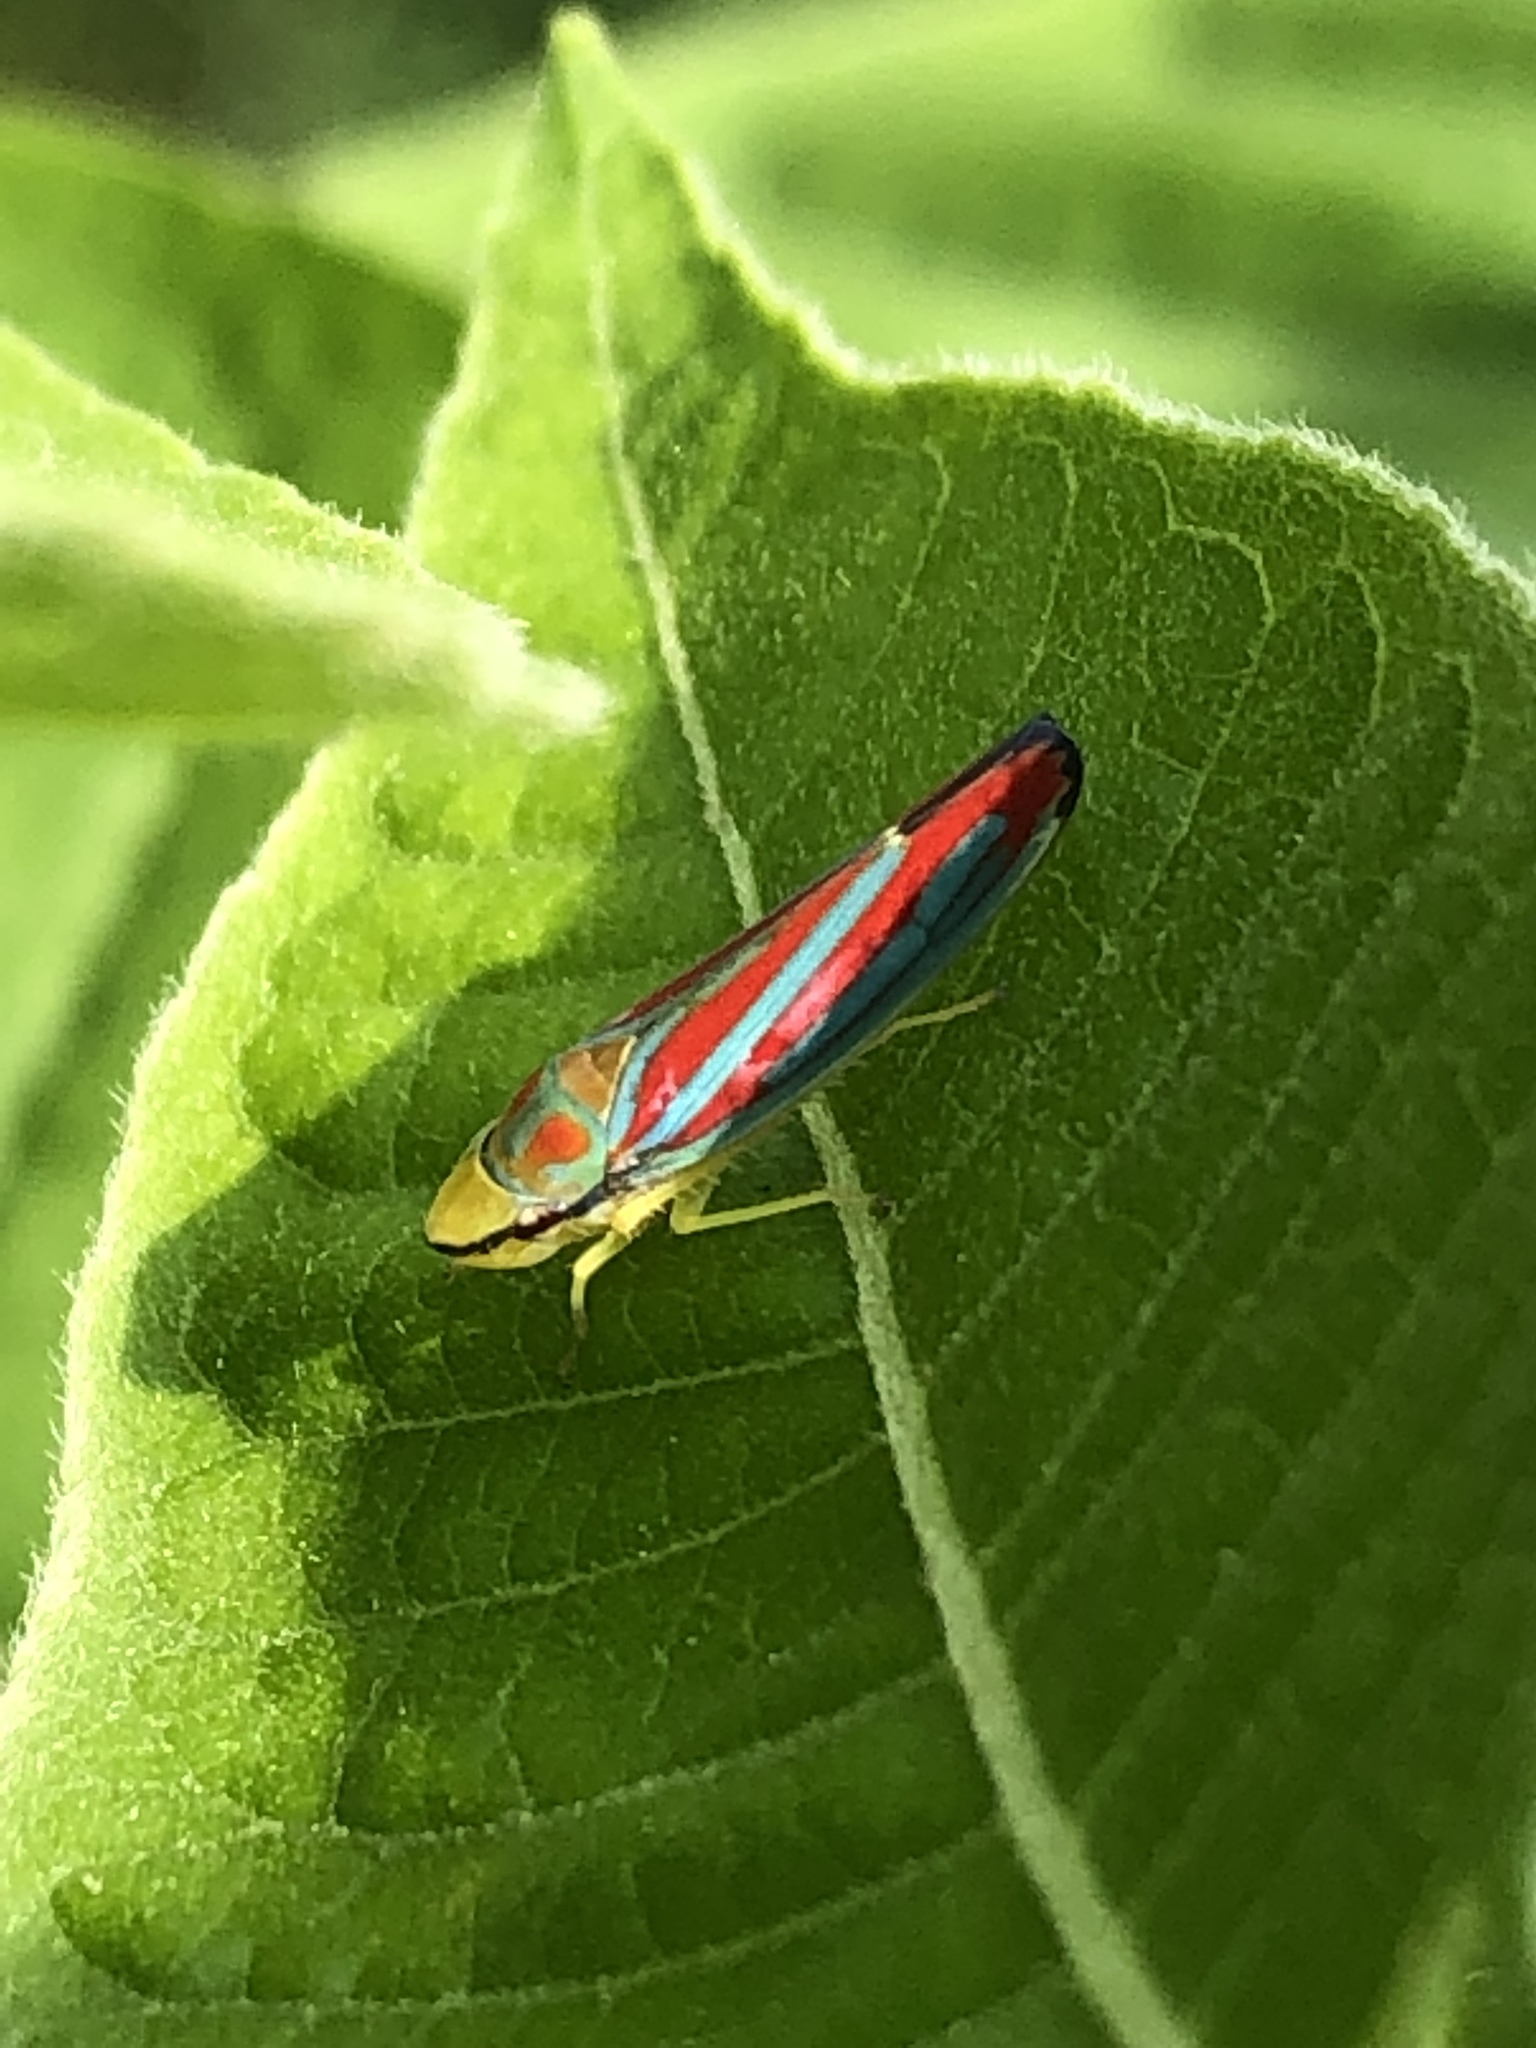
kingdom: Animalia
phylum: Arthropoda
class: Insecta
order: Hemiptera
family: Cicadellidae
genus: Graphocephala
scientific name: Graphocephala coccinea
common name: Candy-striped leafhopper
